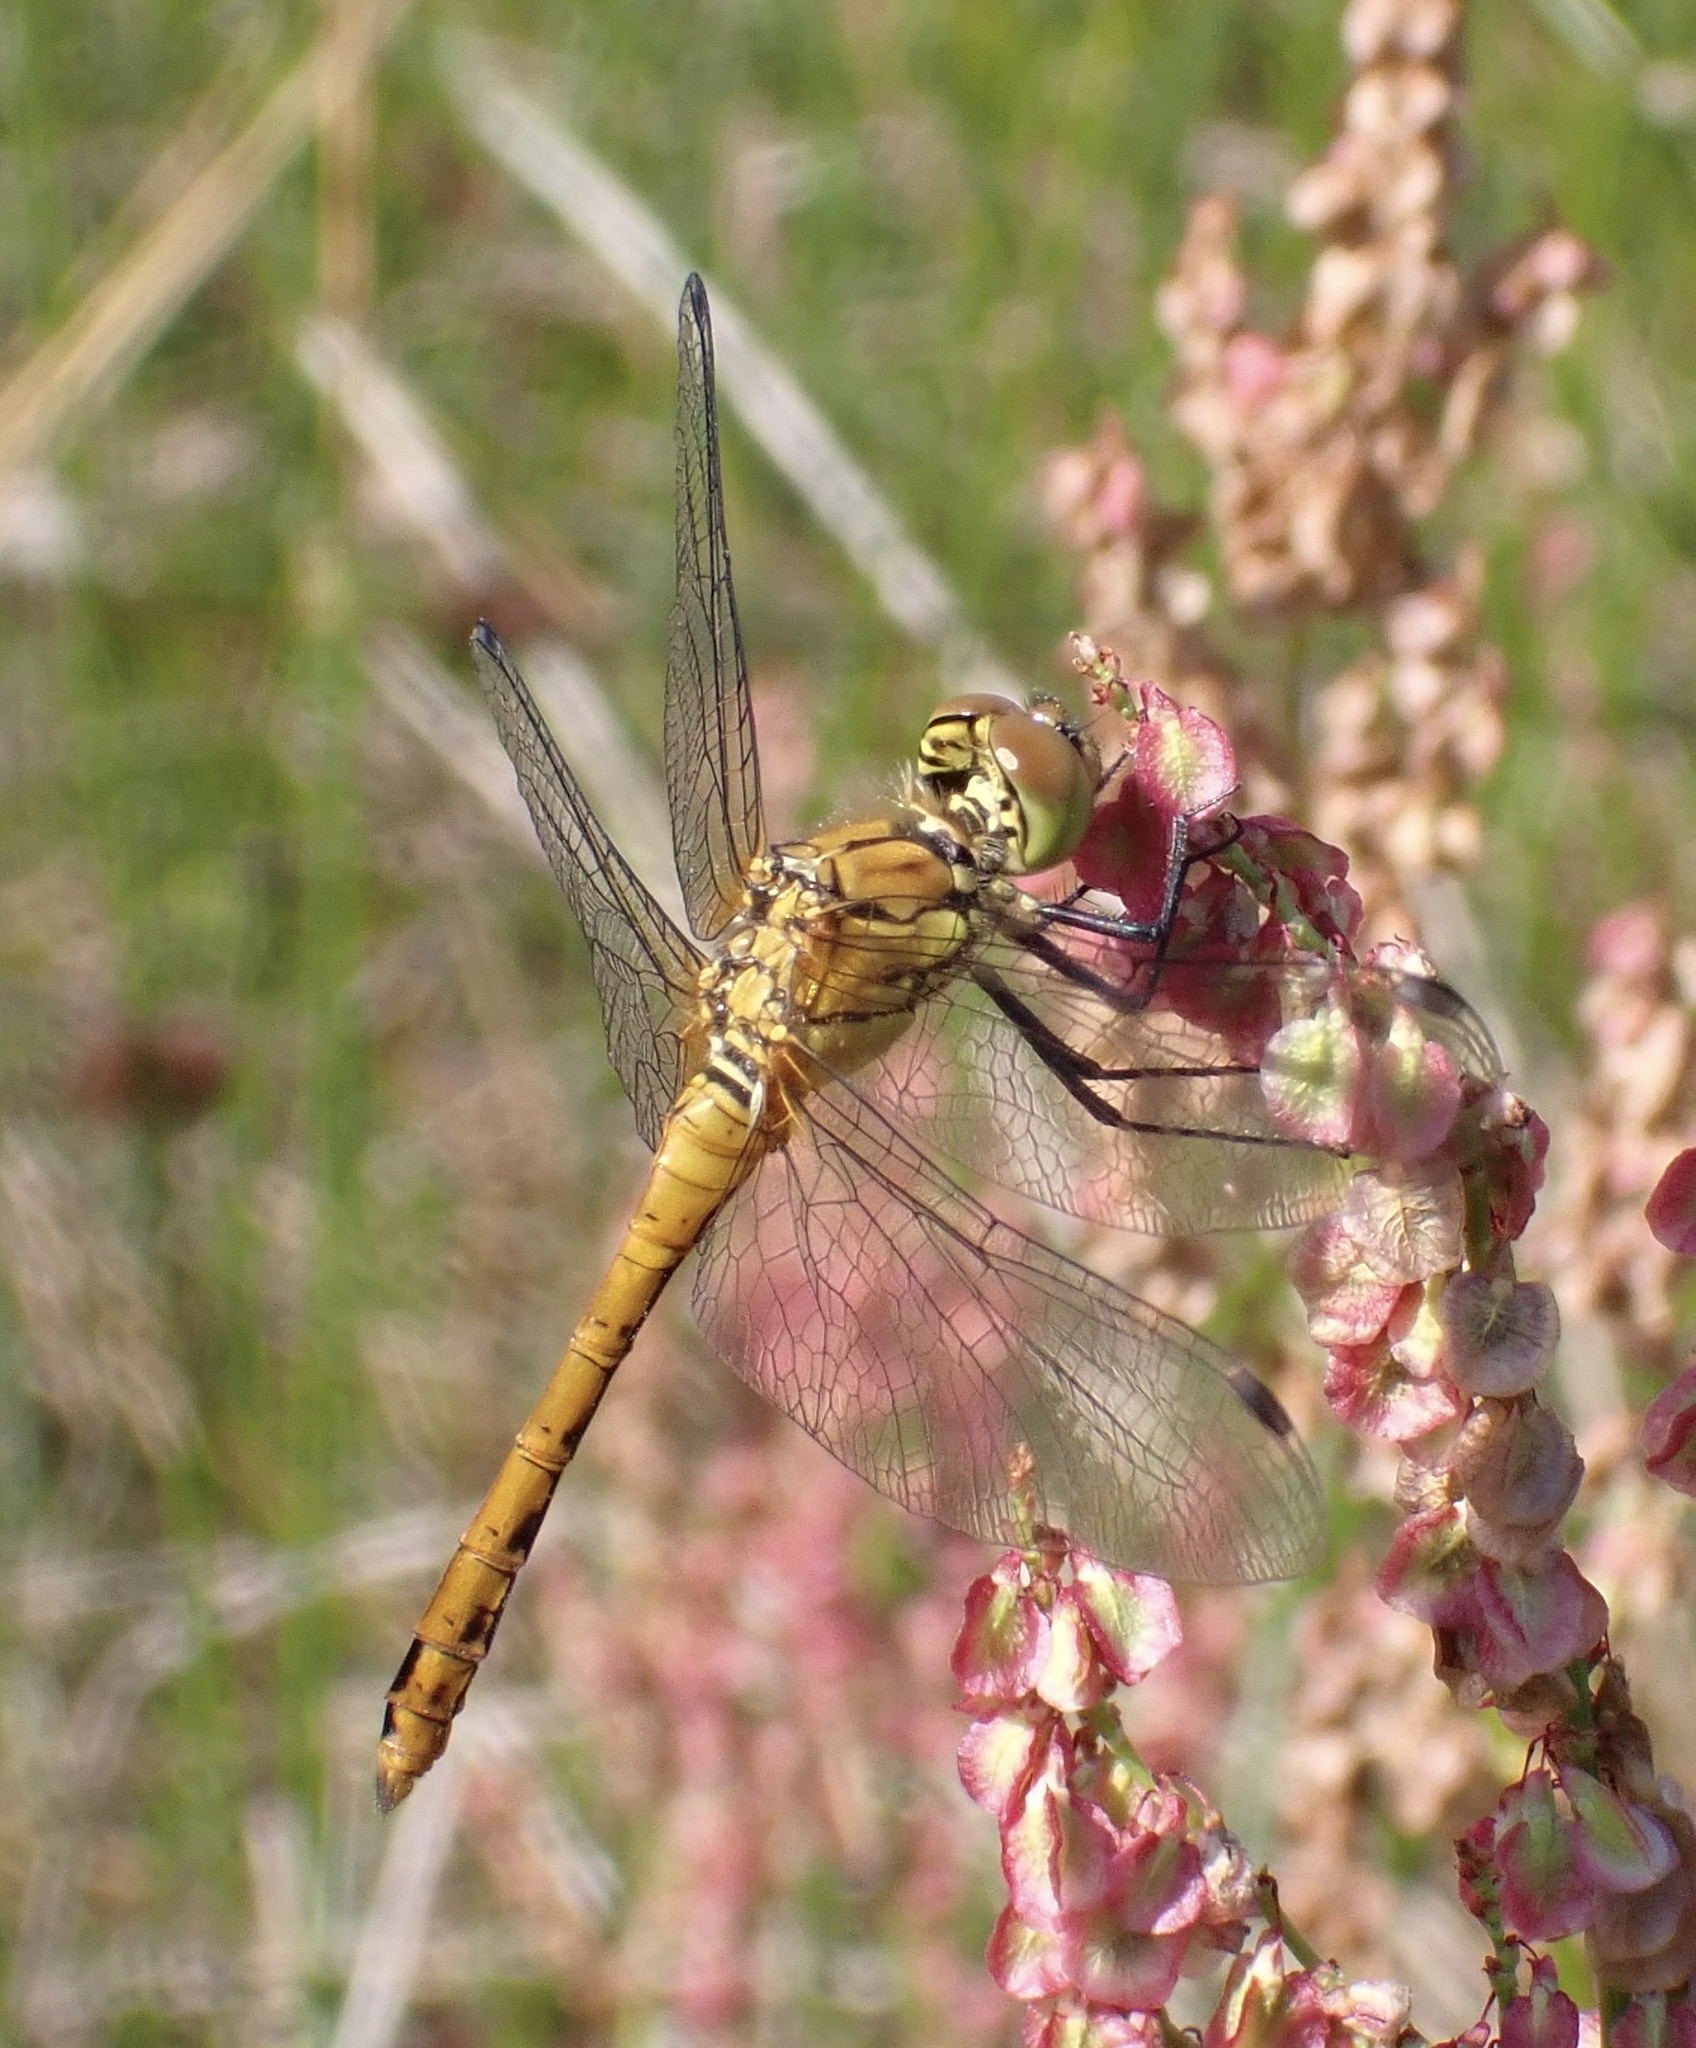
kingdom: Animalia
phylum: Arthropoda
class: Insecta
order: Odonata
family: Libellulidae
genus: Sympetrum
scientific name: Sympetrum sanguineum
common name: Ruddy darter
